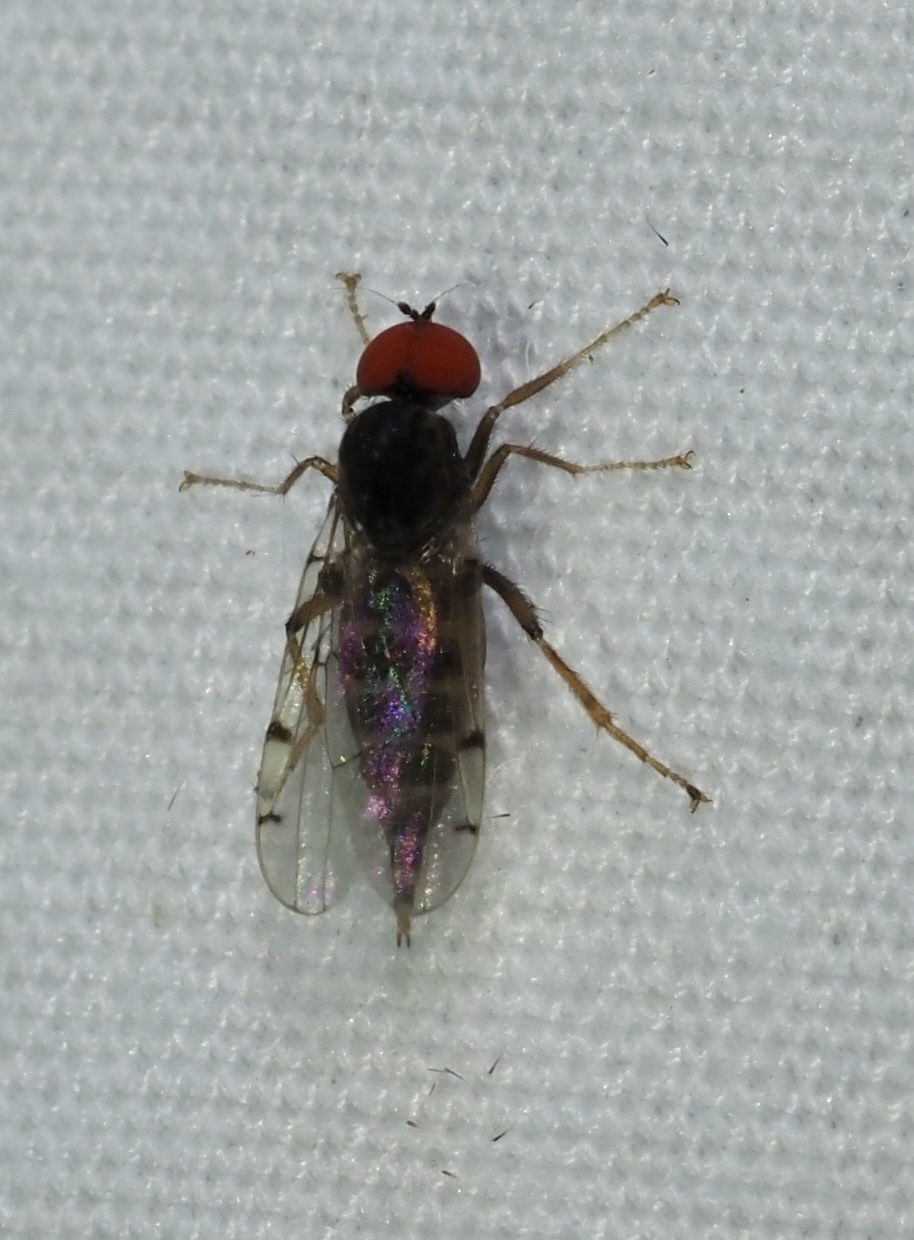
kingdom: Animalia
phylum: Arthropoda
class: Insecta
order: Diptera
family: Hybotidae
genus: Syneches
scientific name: Syneches simplex
